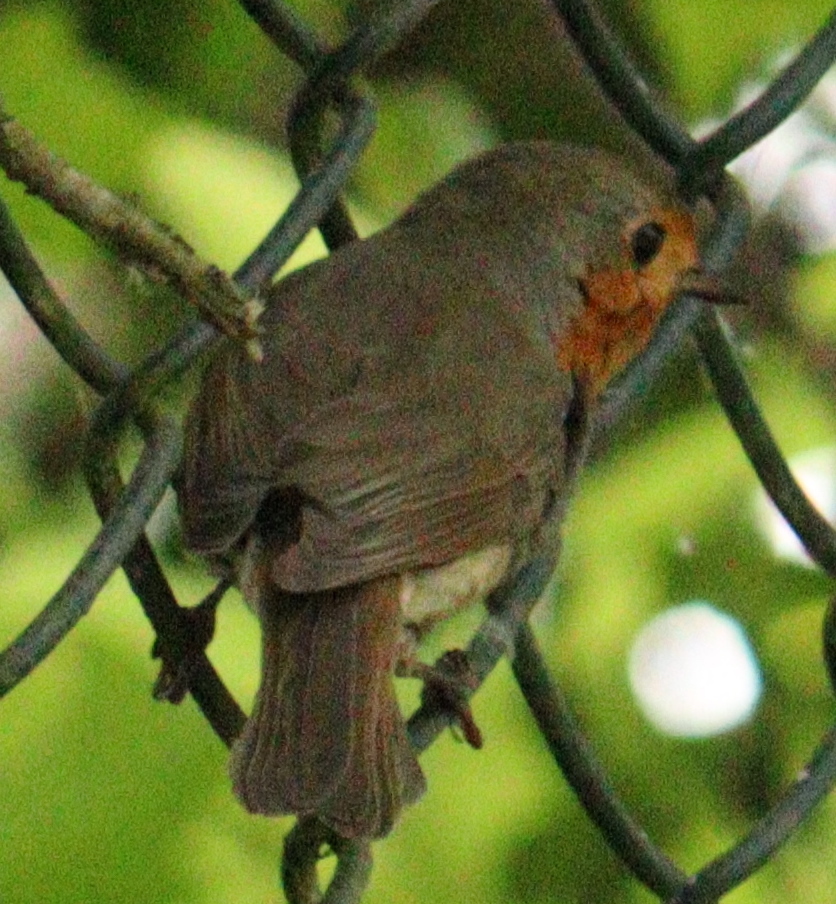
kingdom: Animalia
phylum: Chordata
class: Aves
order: Passeriformes
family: Muscicapidae
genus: Erithacus
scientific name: Erithacus rubecula
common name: European robin
